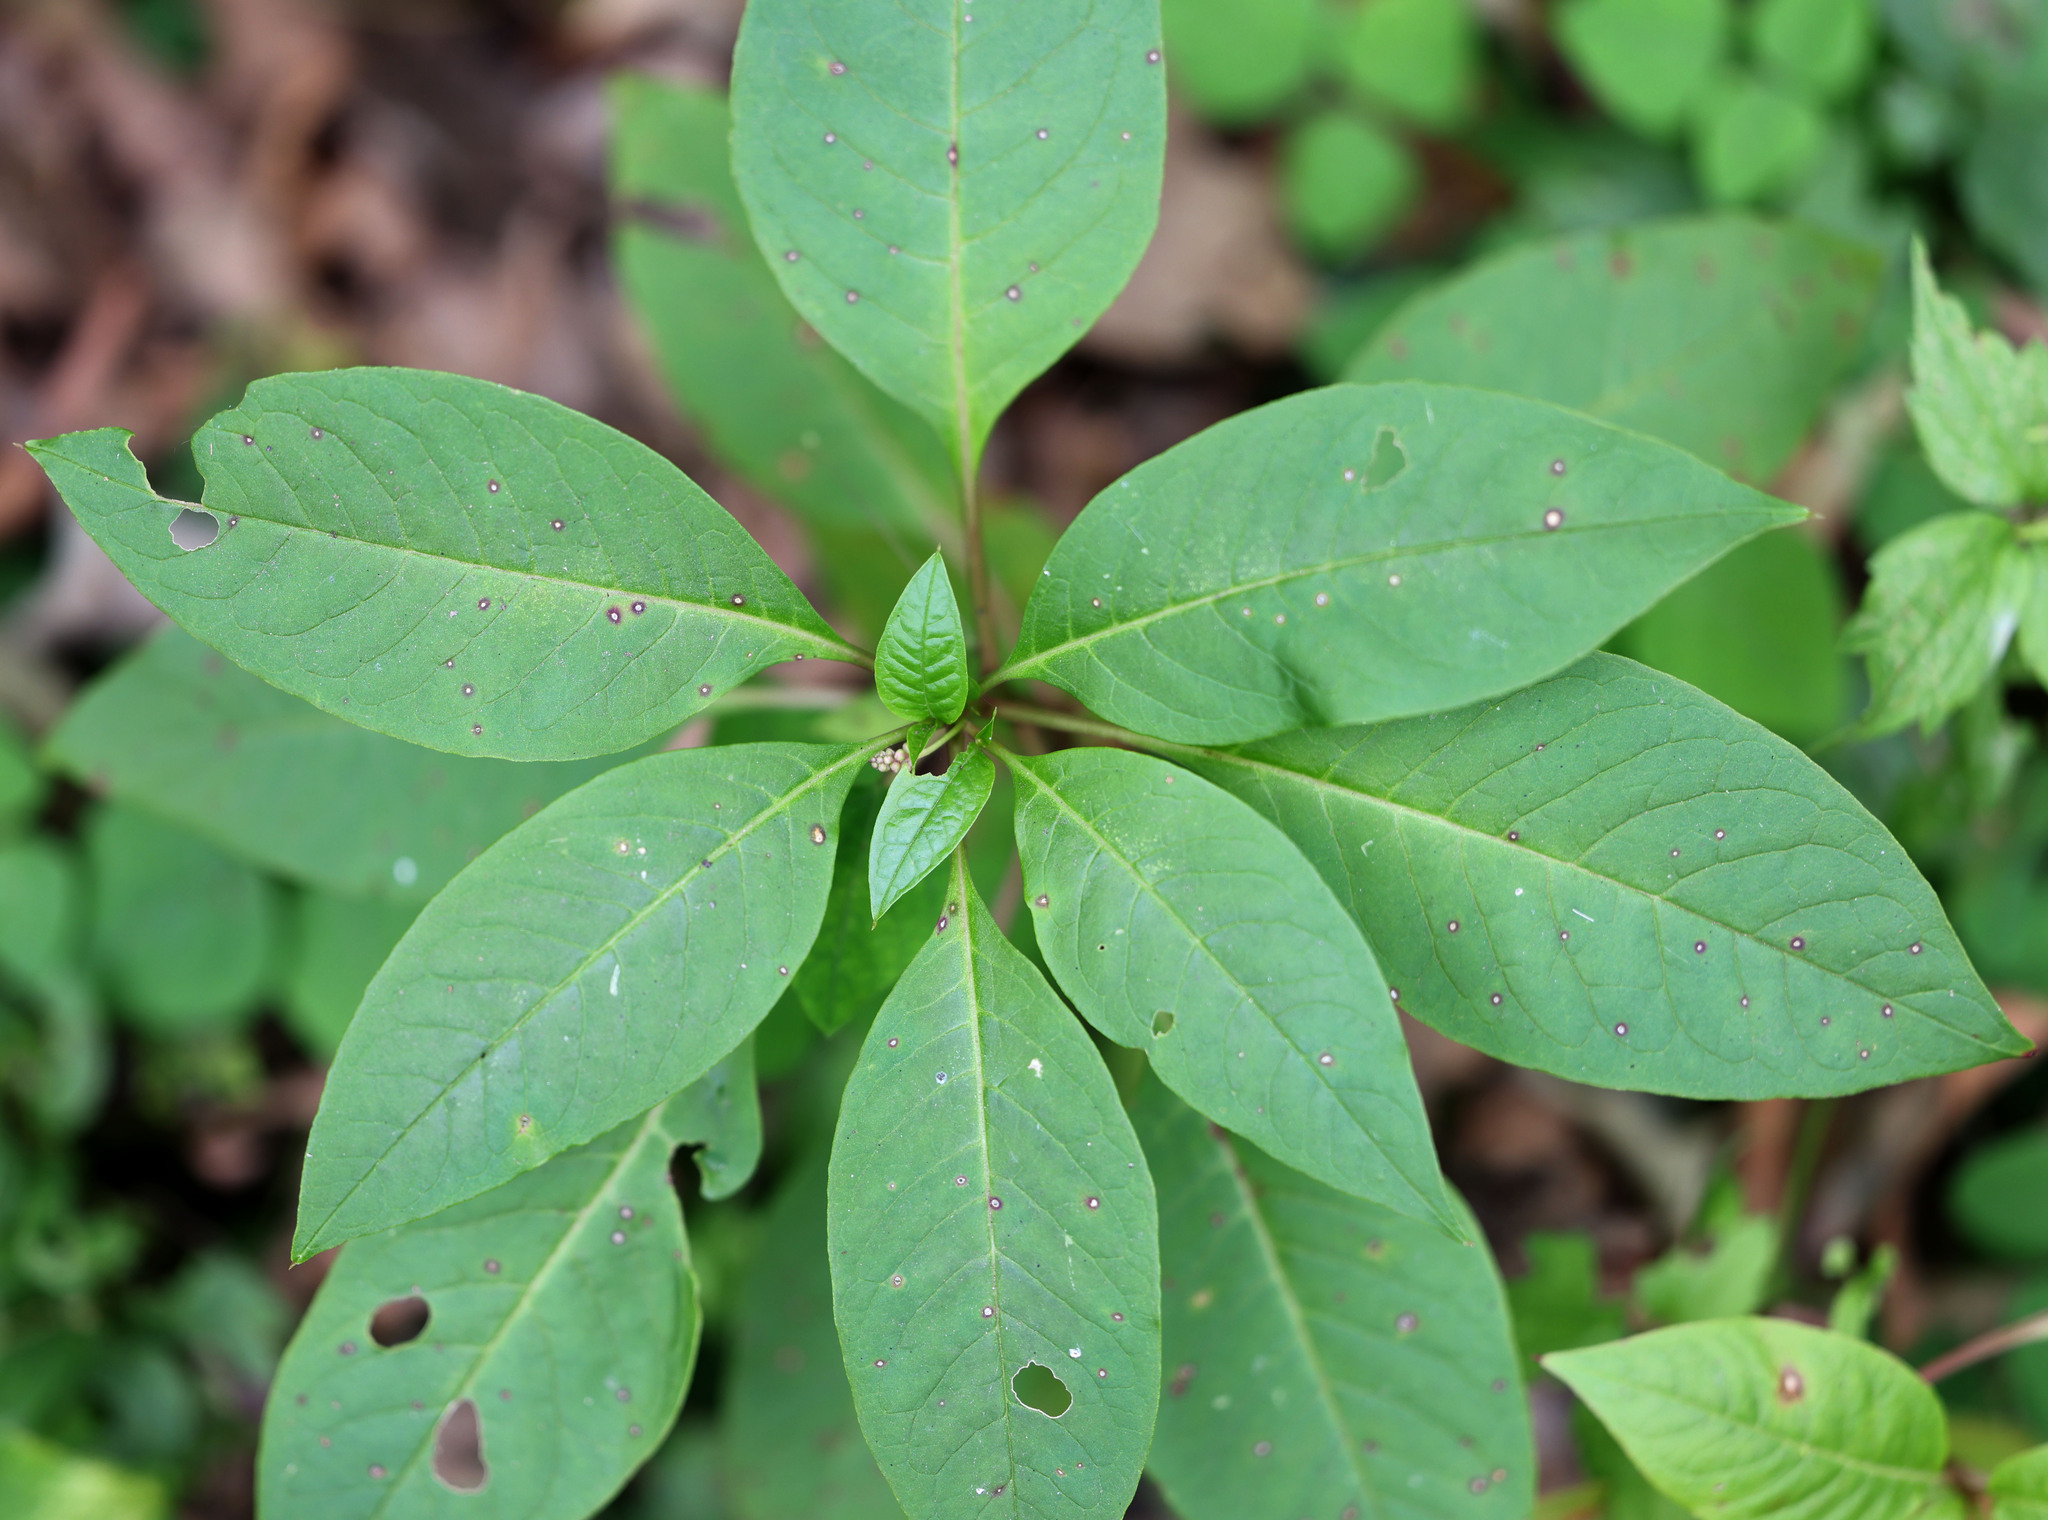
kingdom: Plantae
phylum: Tracheophyta
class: Magnoliopsida
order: Caryophyllales
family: Phytolaccaceae
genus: Phytolacca
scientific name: Phytolacca americana
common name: American pokeweed
